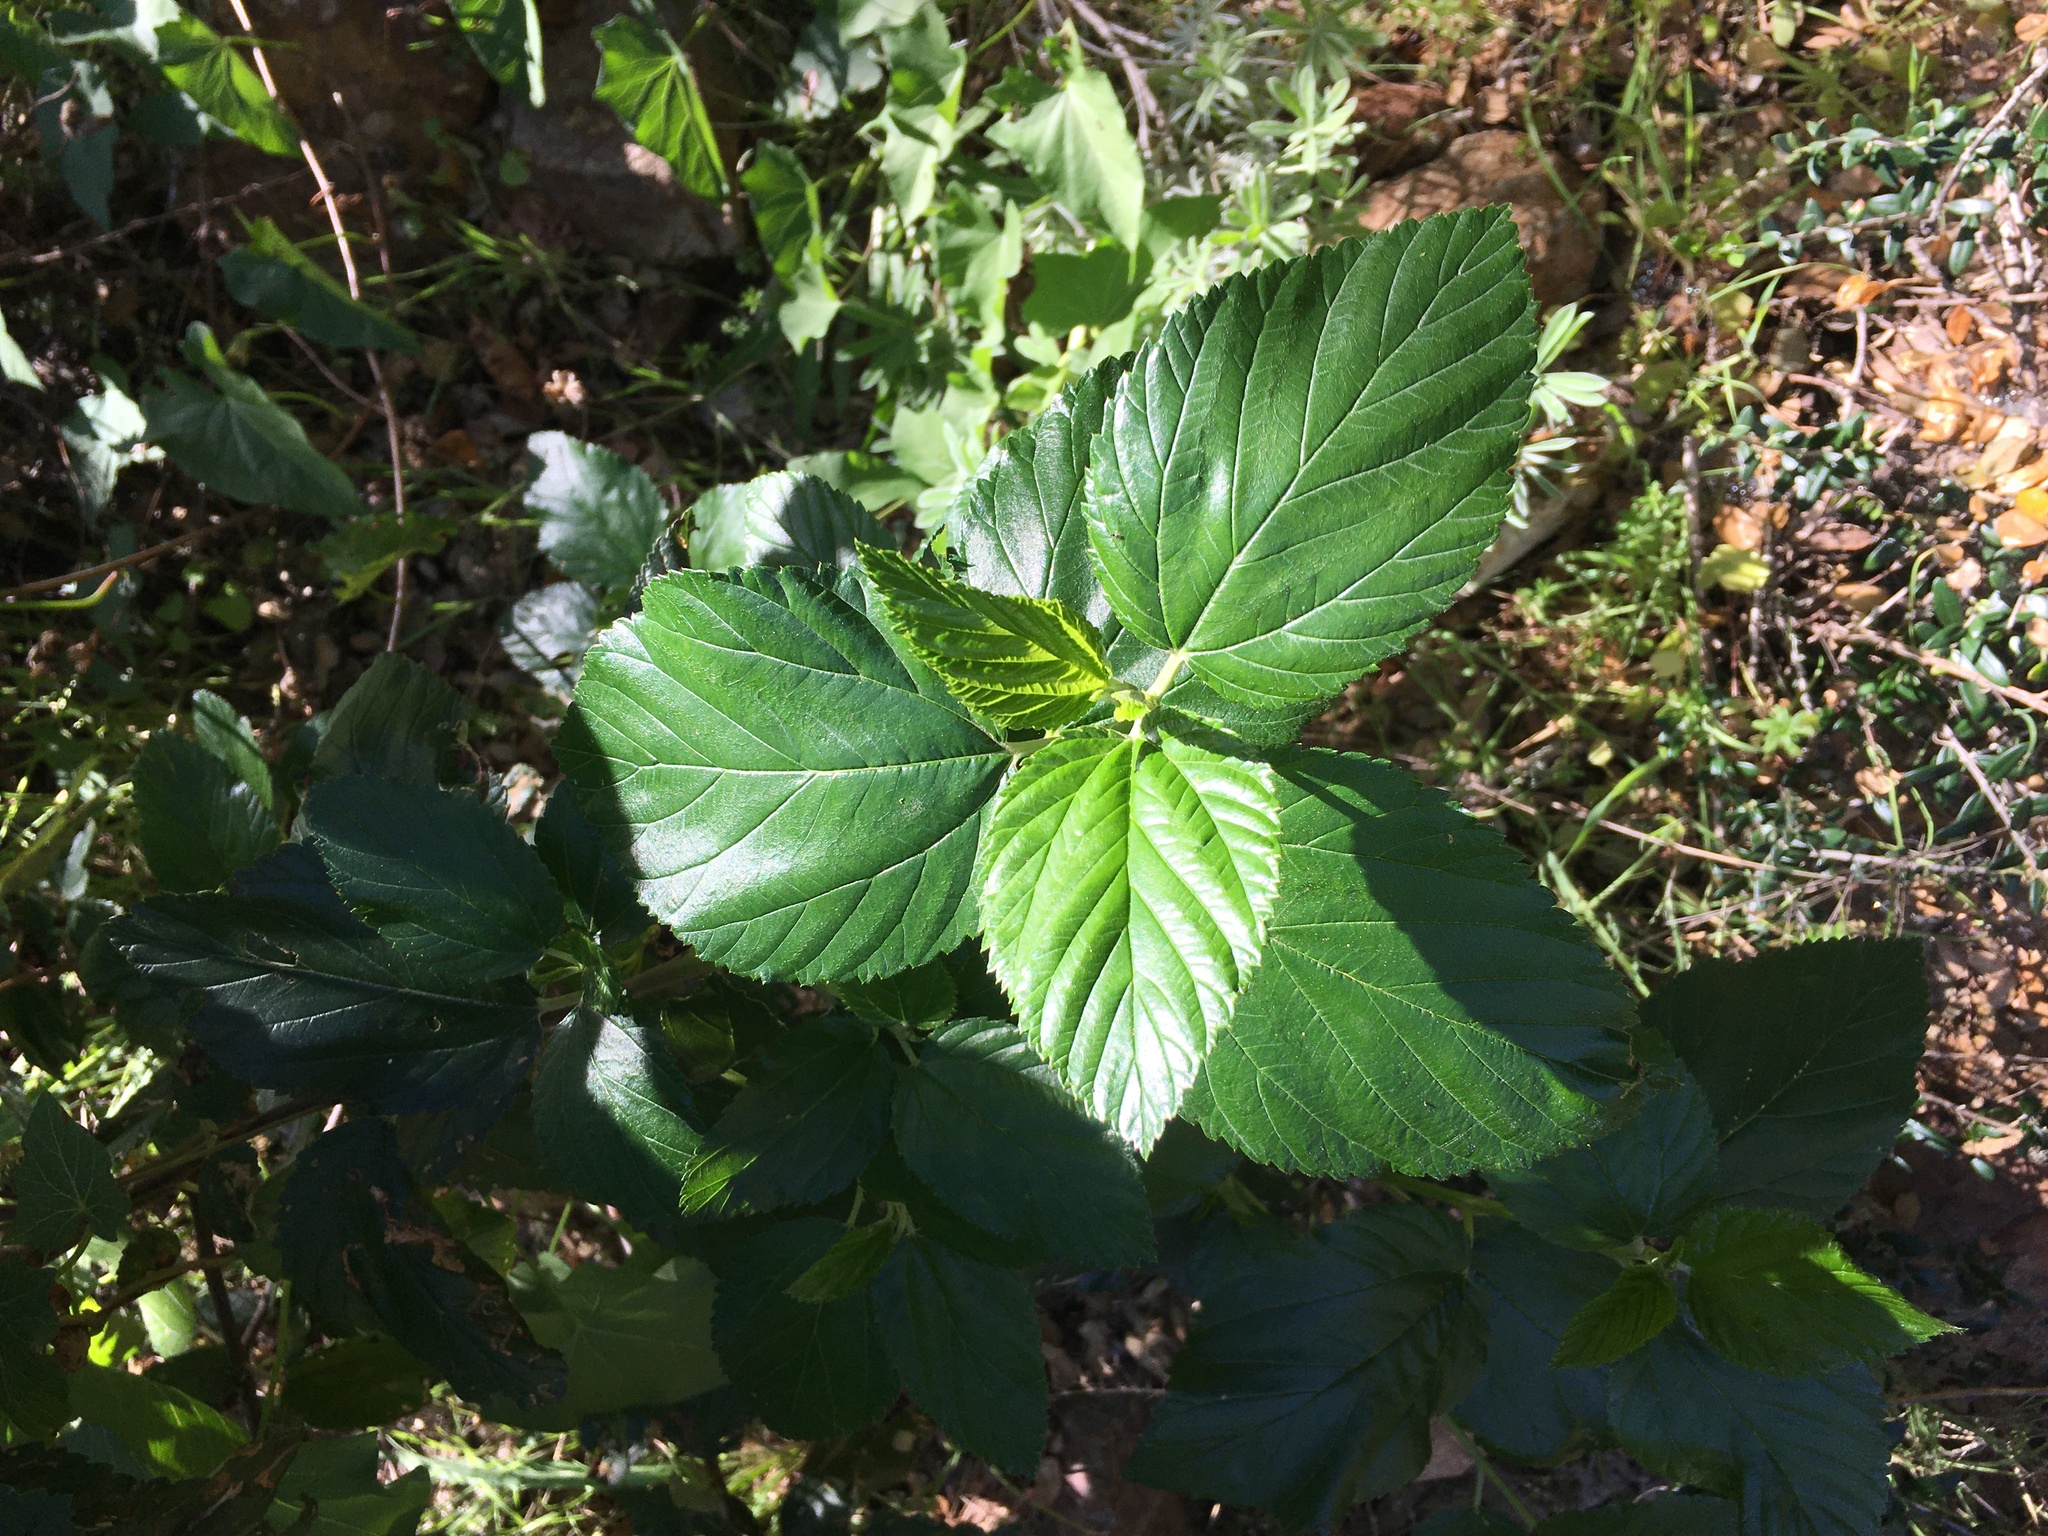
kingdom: Plantae
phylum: Tracheophyta
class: Magnoliopsida
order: Rosales
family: Rhamnaceae
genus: Ceanothus
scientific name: Ceanothus arboreus
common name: Catalina mountain-lilac
